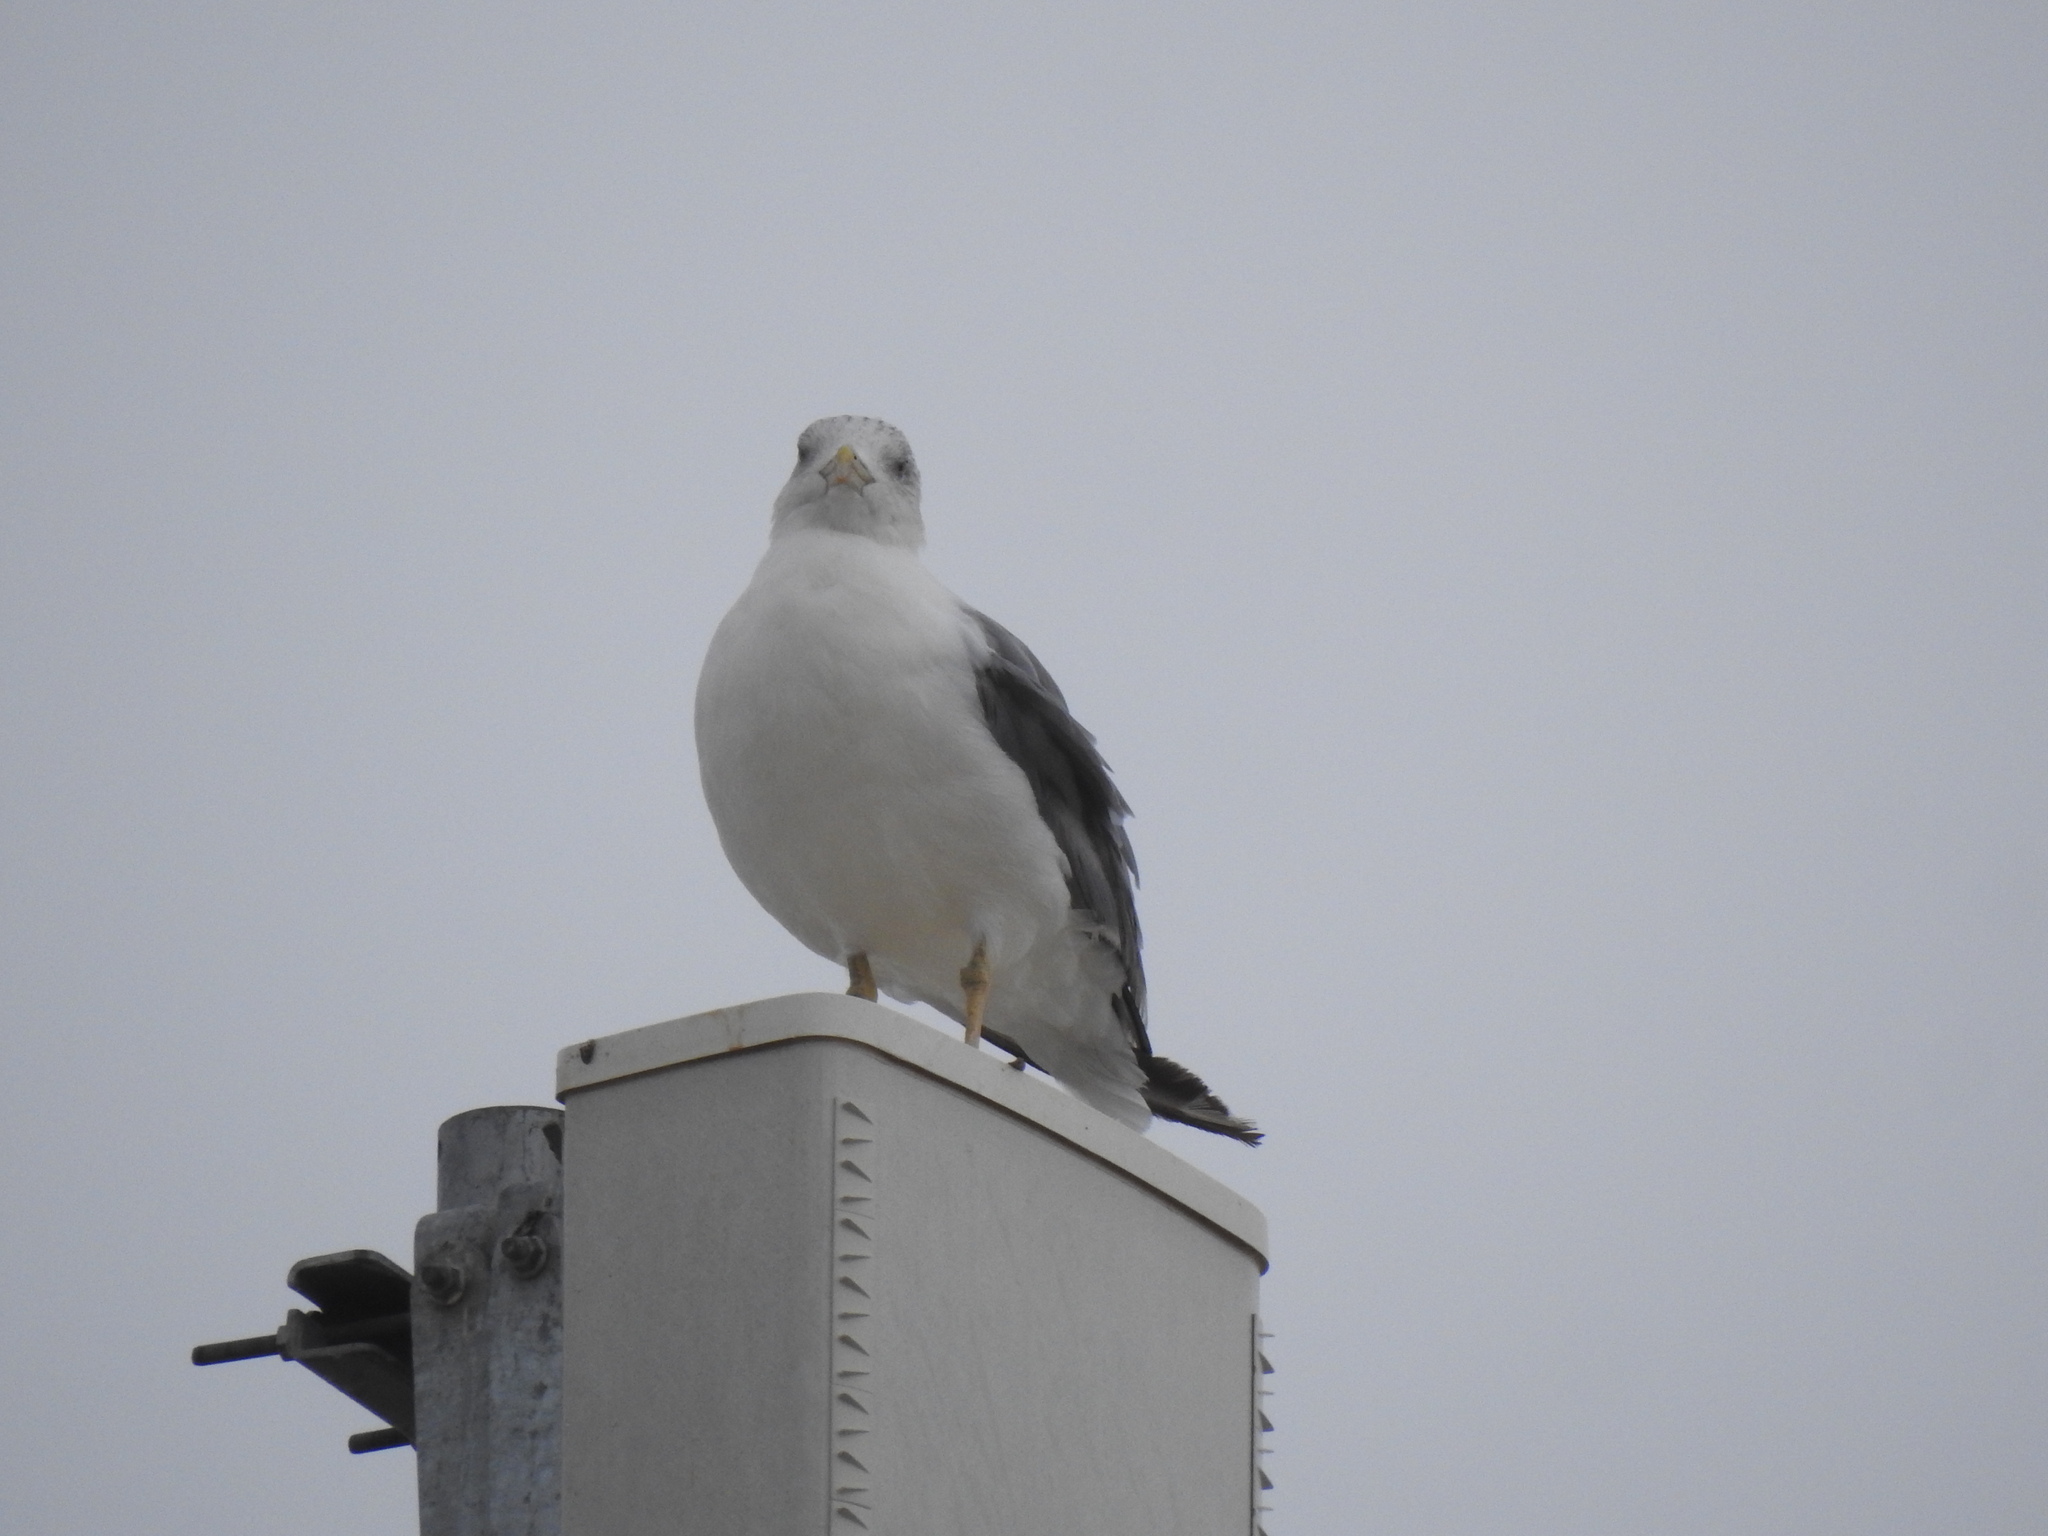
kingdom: Animalia
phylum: Chordata
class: Aves
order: Charadriiformes
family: Laridae
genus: Larus
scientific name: Larus michahellis
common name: Yellow-legged gull
